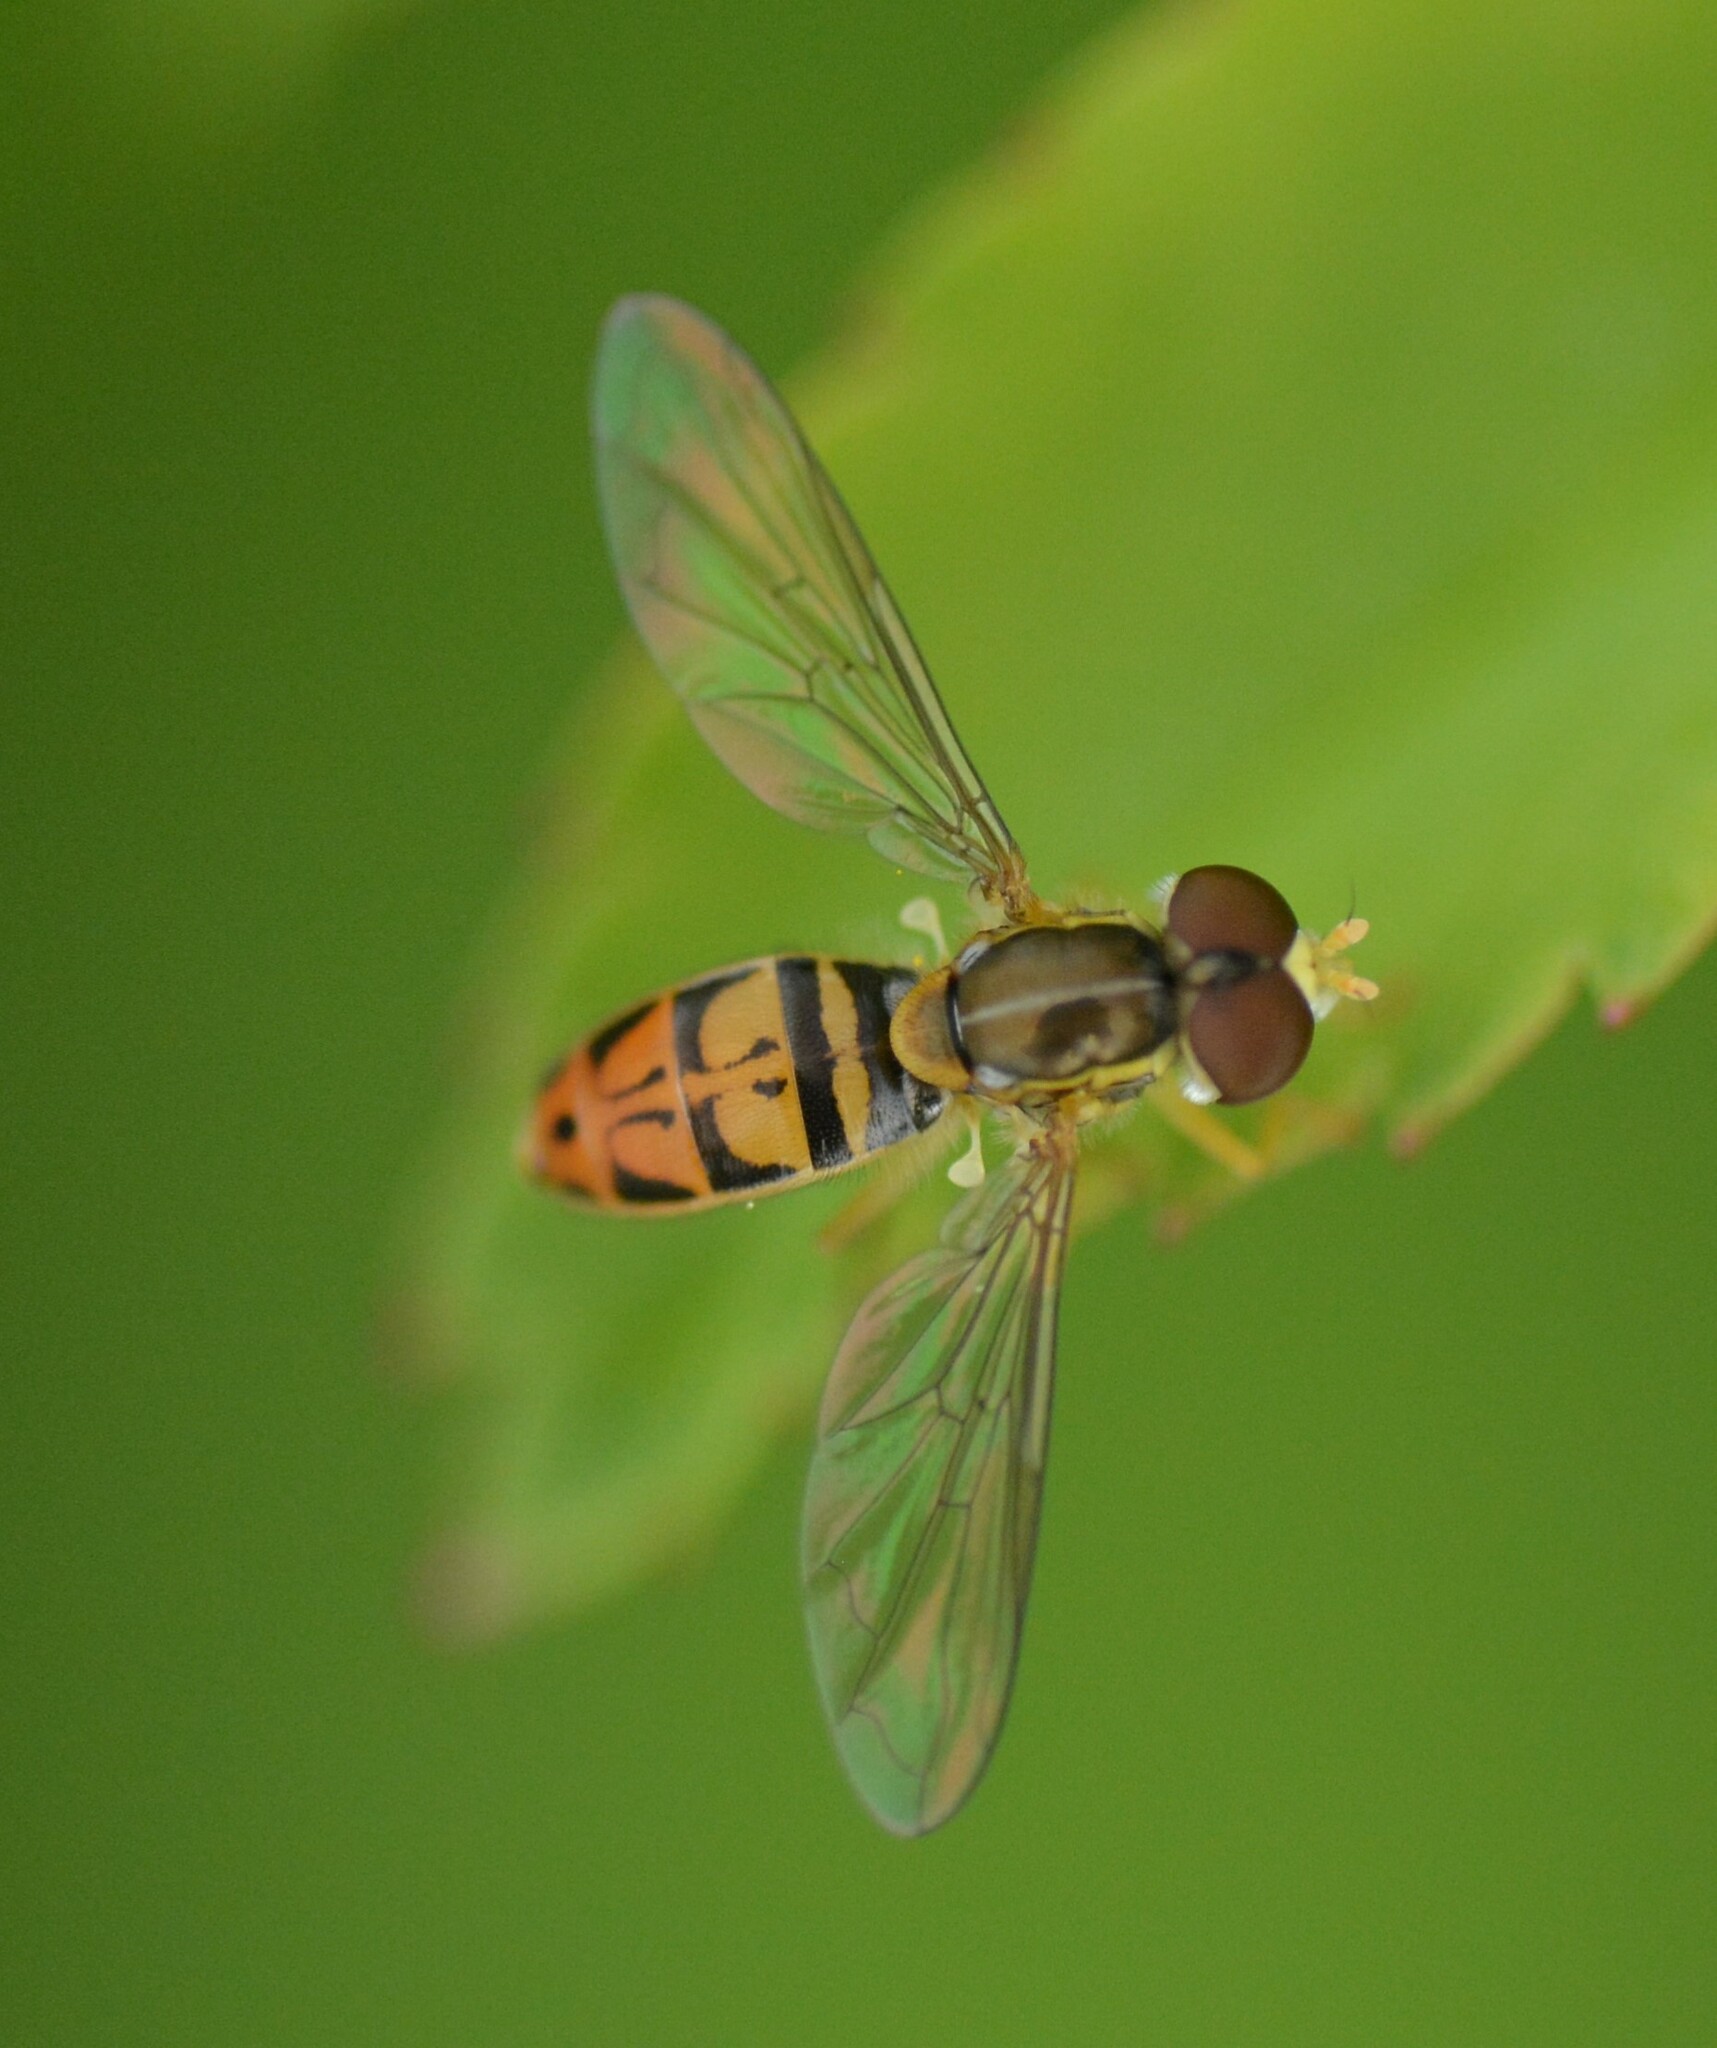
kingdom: Animalia
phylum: Arthropoda
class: Insecta
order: Diptera
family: Syrphidae
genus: Toxomerus
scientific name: Toxomerus marginatus
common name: Syrphid fly
